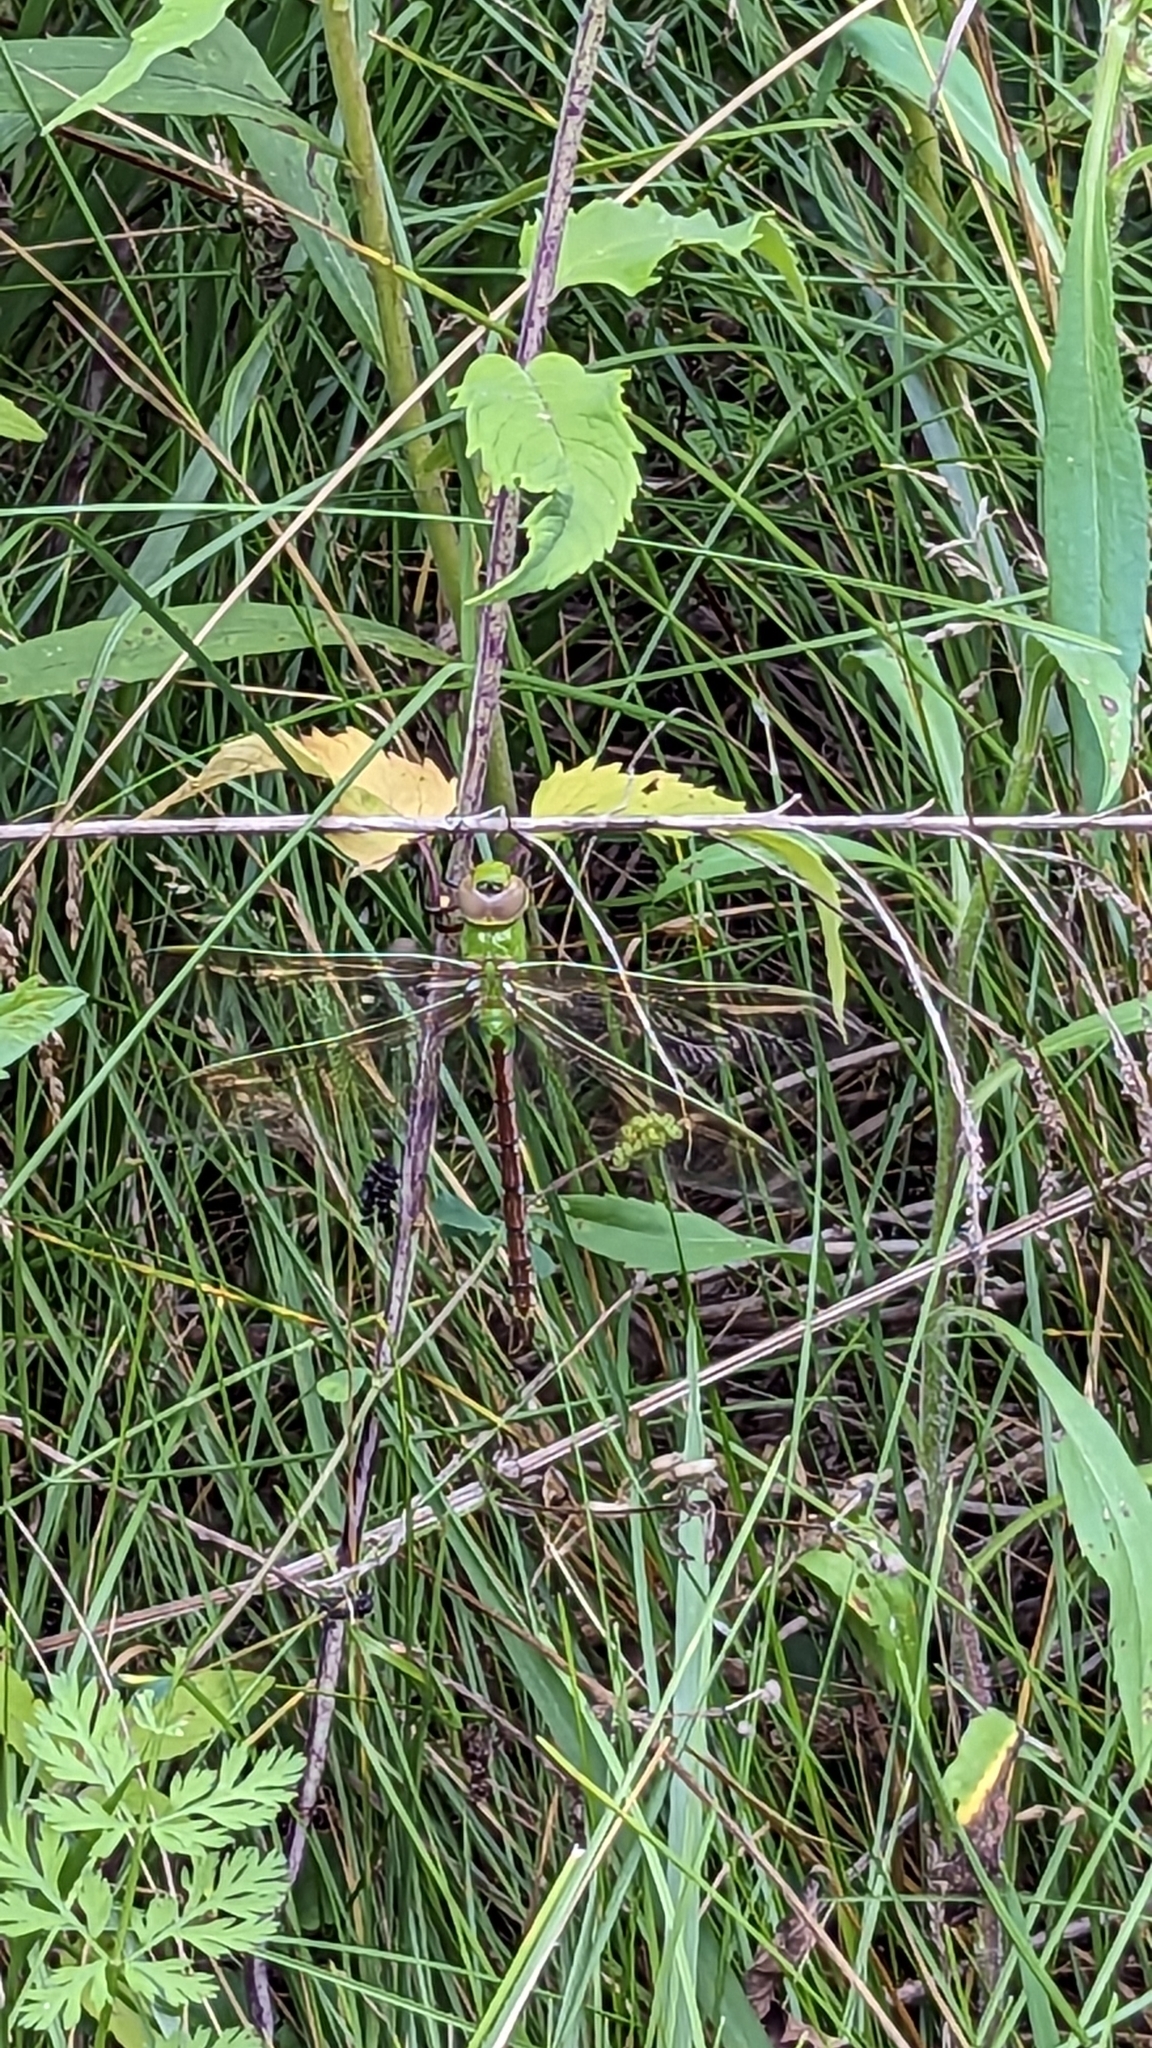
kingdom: Animalia
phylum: Arthropoda
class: Insecta
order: Odonata
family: Aeshnidae
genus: Anax
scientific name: Anax junius
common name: Common green darner
